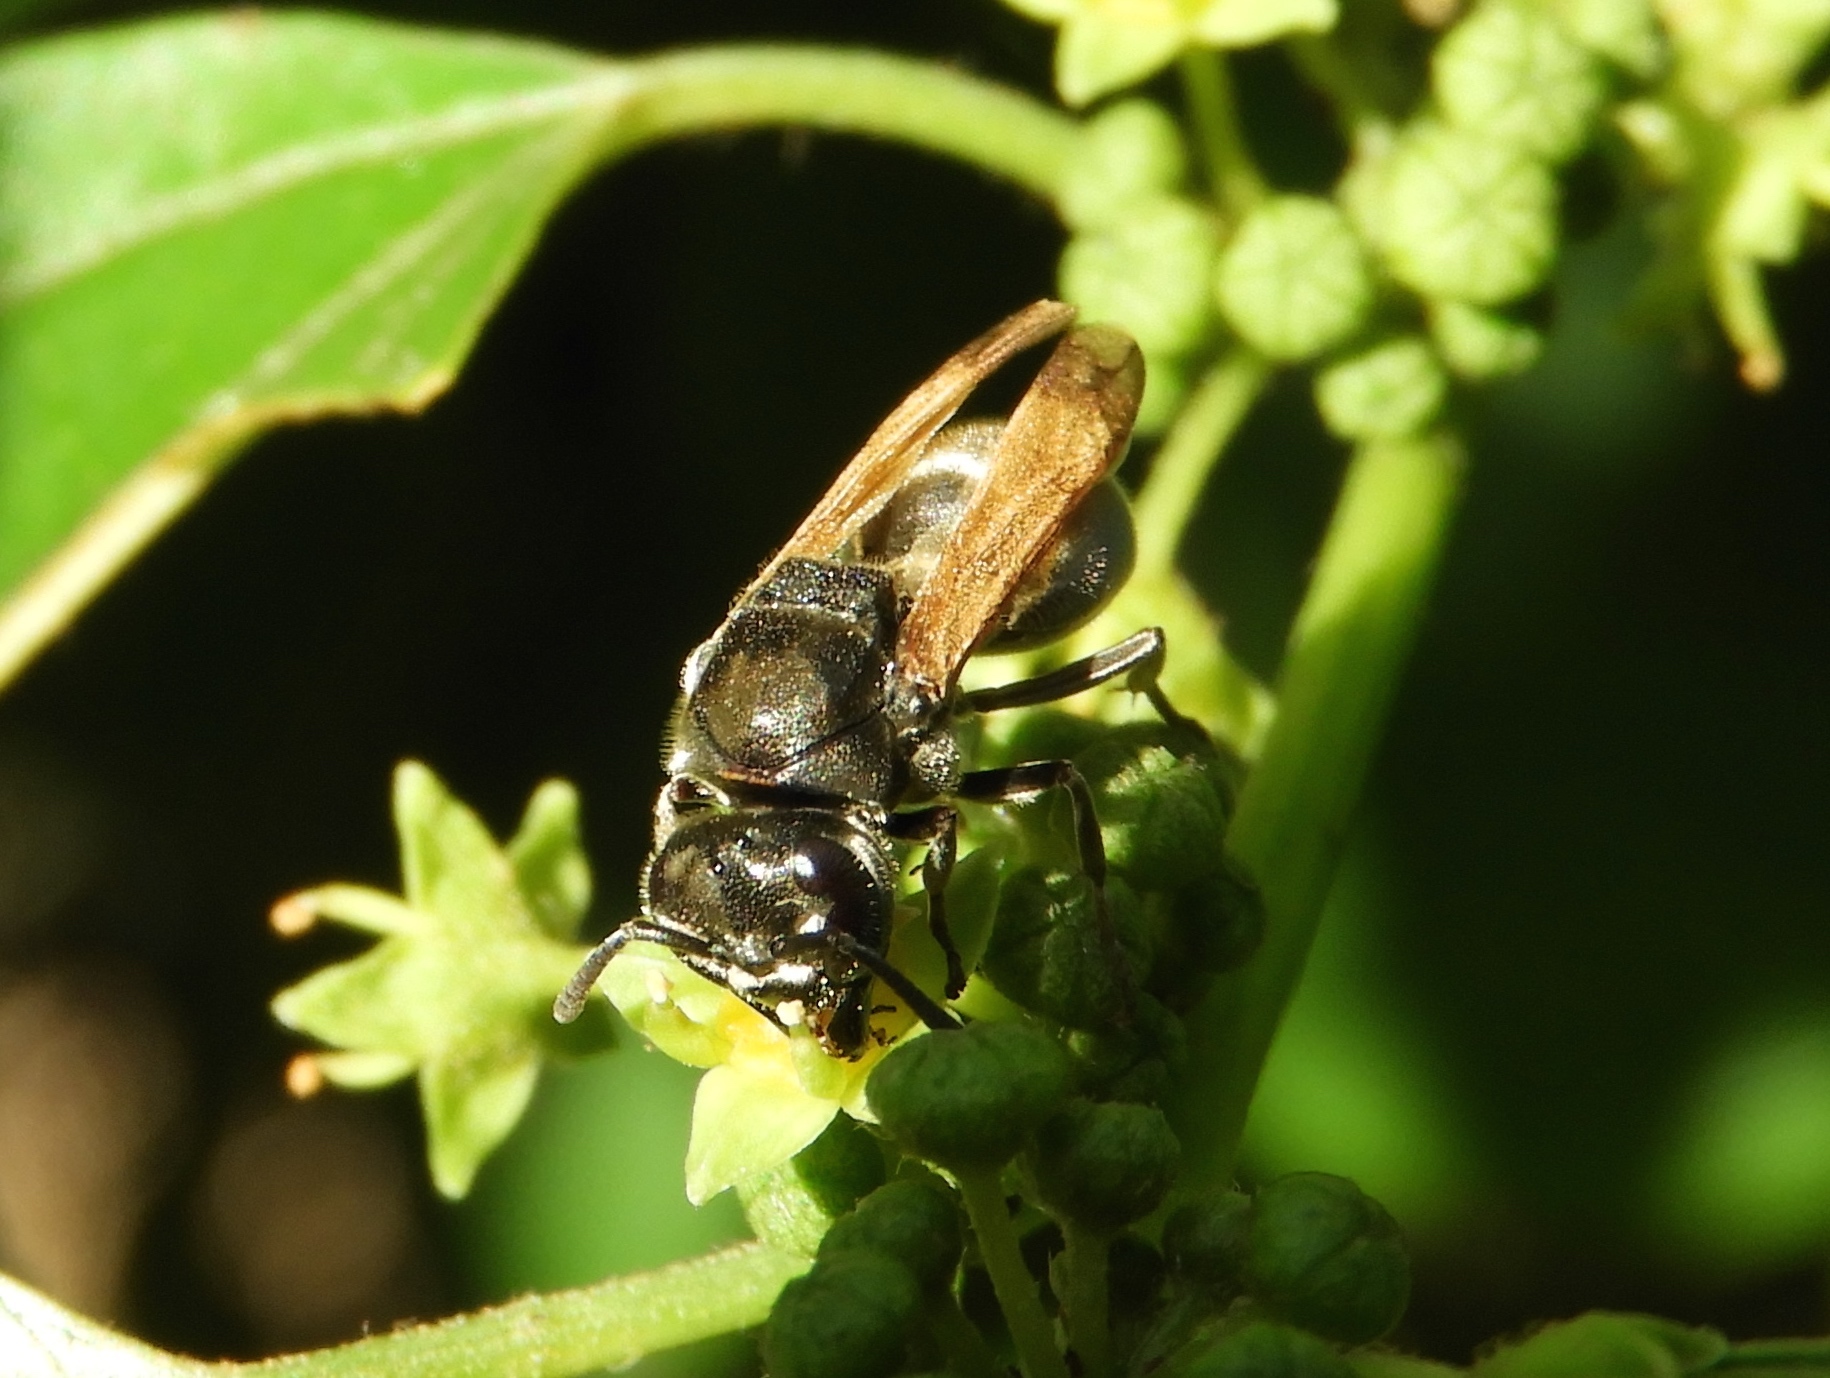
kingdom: Animalia
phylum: Arthropoda
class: Insecta
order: Hymenoptera
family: Vespidae
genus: Brachygastra
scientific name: Brachygastra mellifica
